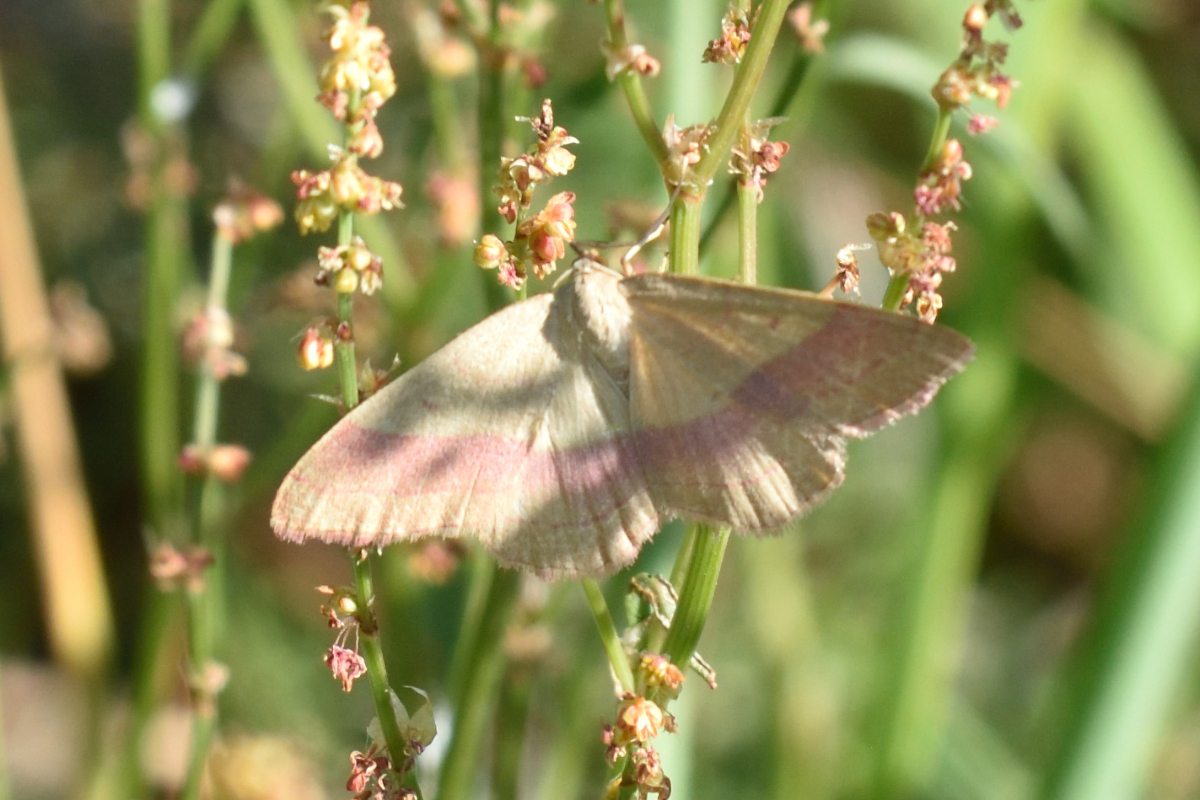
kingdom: Animalia
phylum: Arthropoda
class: Insecta
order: Lepidoptera
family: Geometridae
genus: Rhodostrophia
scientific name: Rhodostrophia vibicaria
